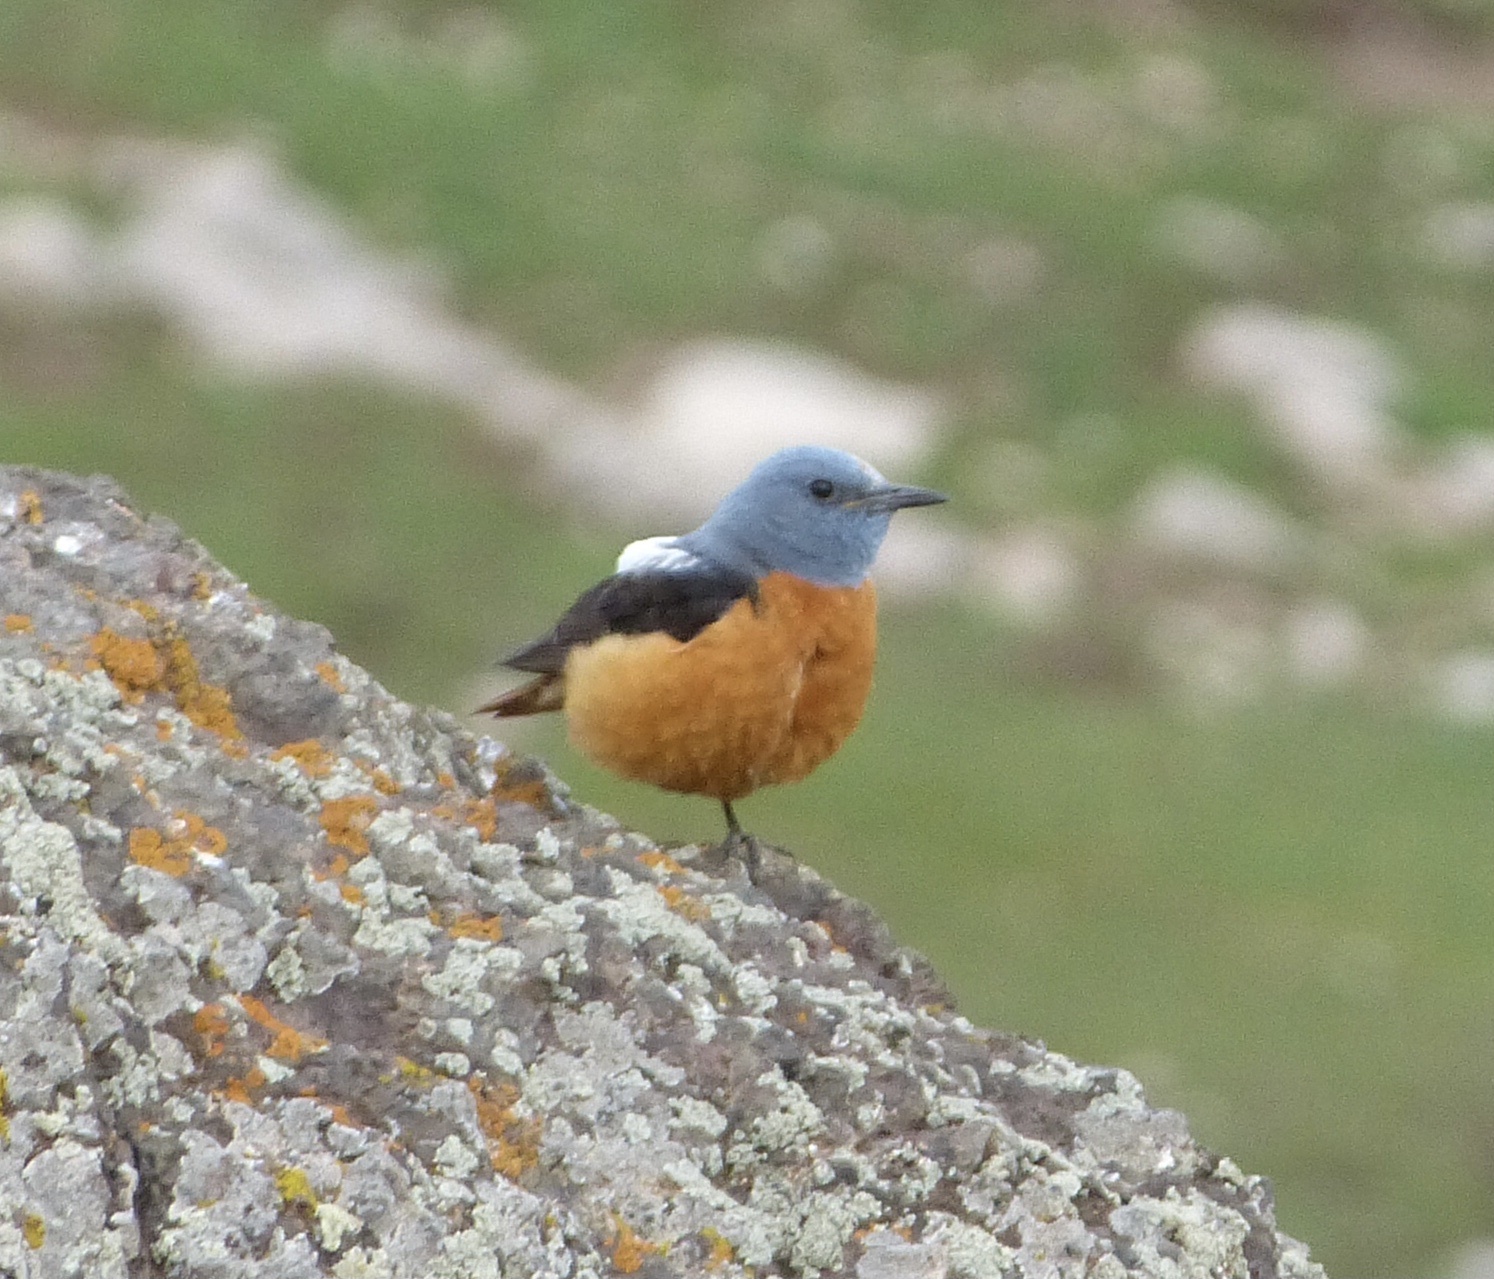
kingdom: Animalia
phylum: Chordata
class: Aves
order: Passeriformes
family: Muscicapidae
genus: Monticola
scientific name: Monticola saxatilis
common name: Rufous-tailed rock thrush
